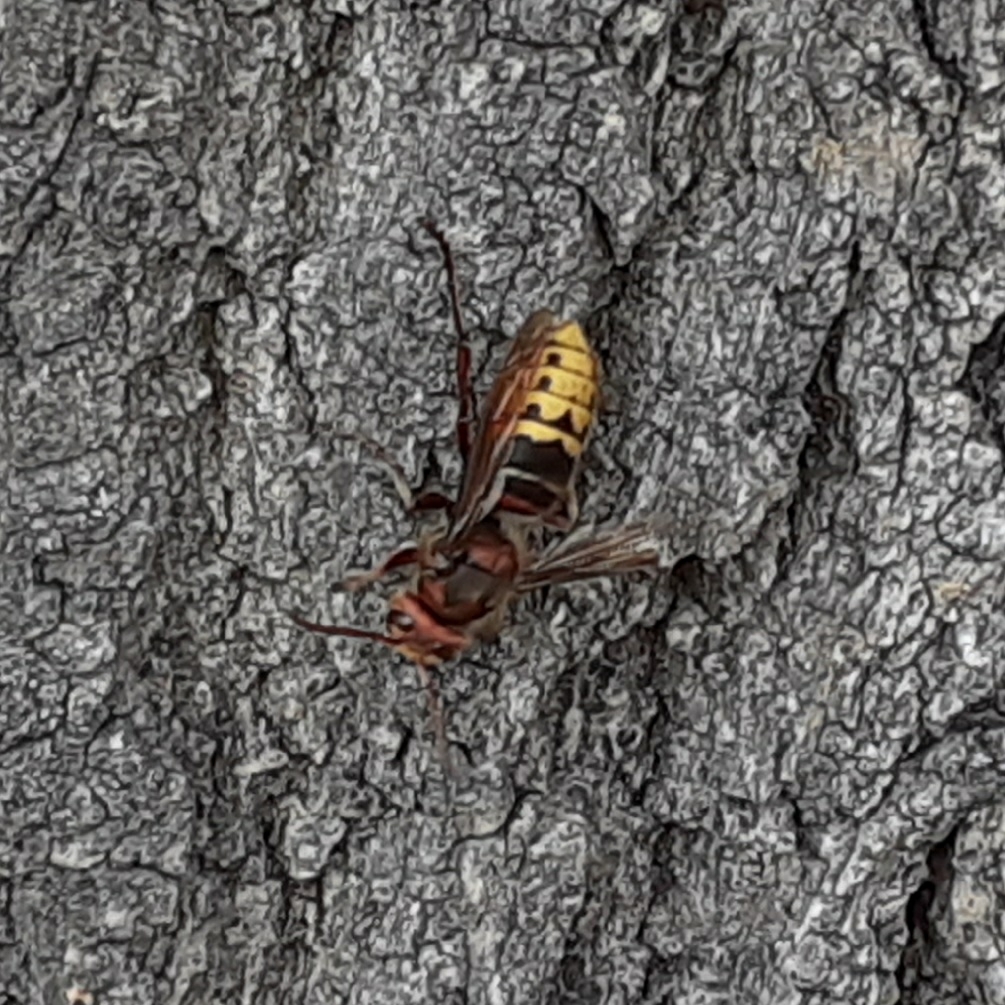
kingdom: Animalia
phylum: Arthropoda
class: Insecta
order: Hymenoptera
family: Vespidae
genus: Vespa
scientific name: Vespa crabro
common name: Hornet
